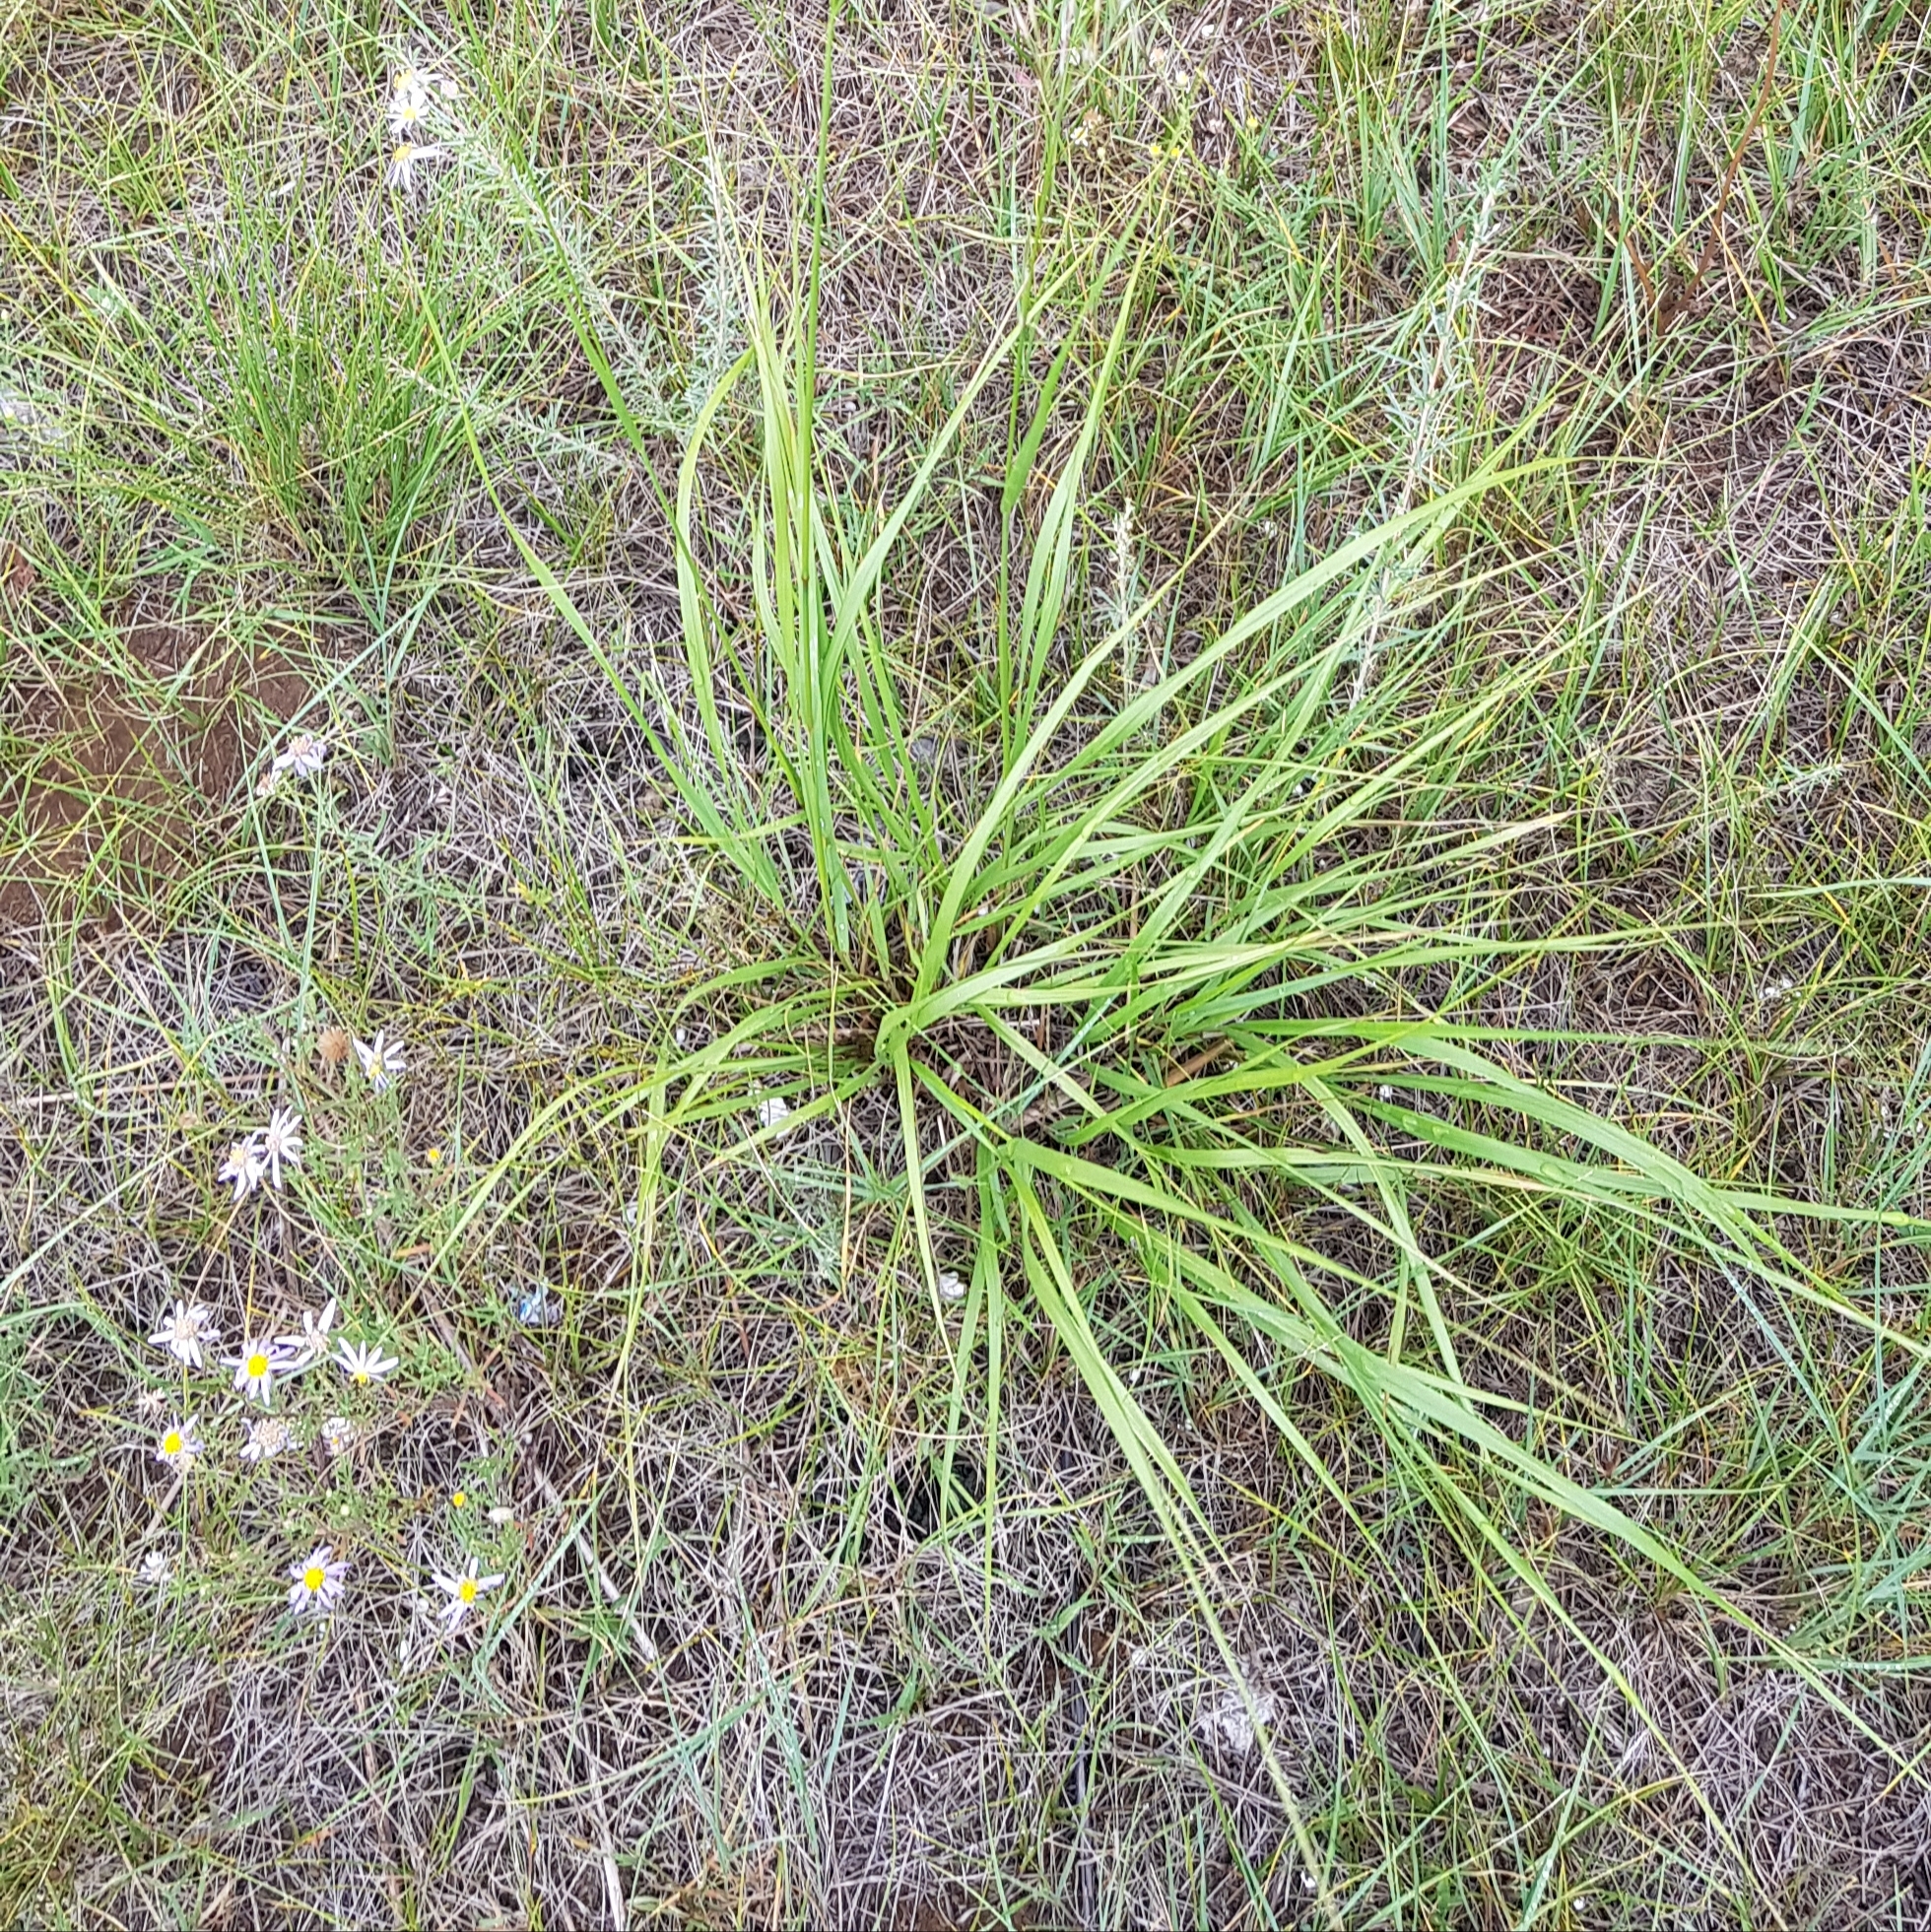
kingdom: Plantae
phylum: Tracheophyta
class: Liliopsida
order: Poales
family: Poaceae
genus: Achnatherum
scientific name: Achnatherum sibiricum
